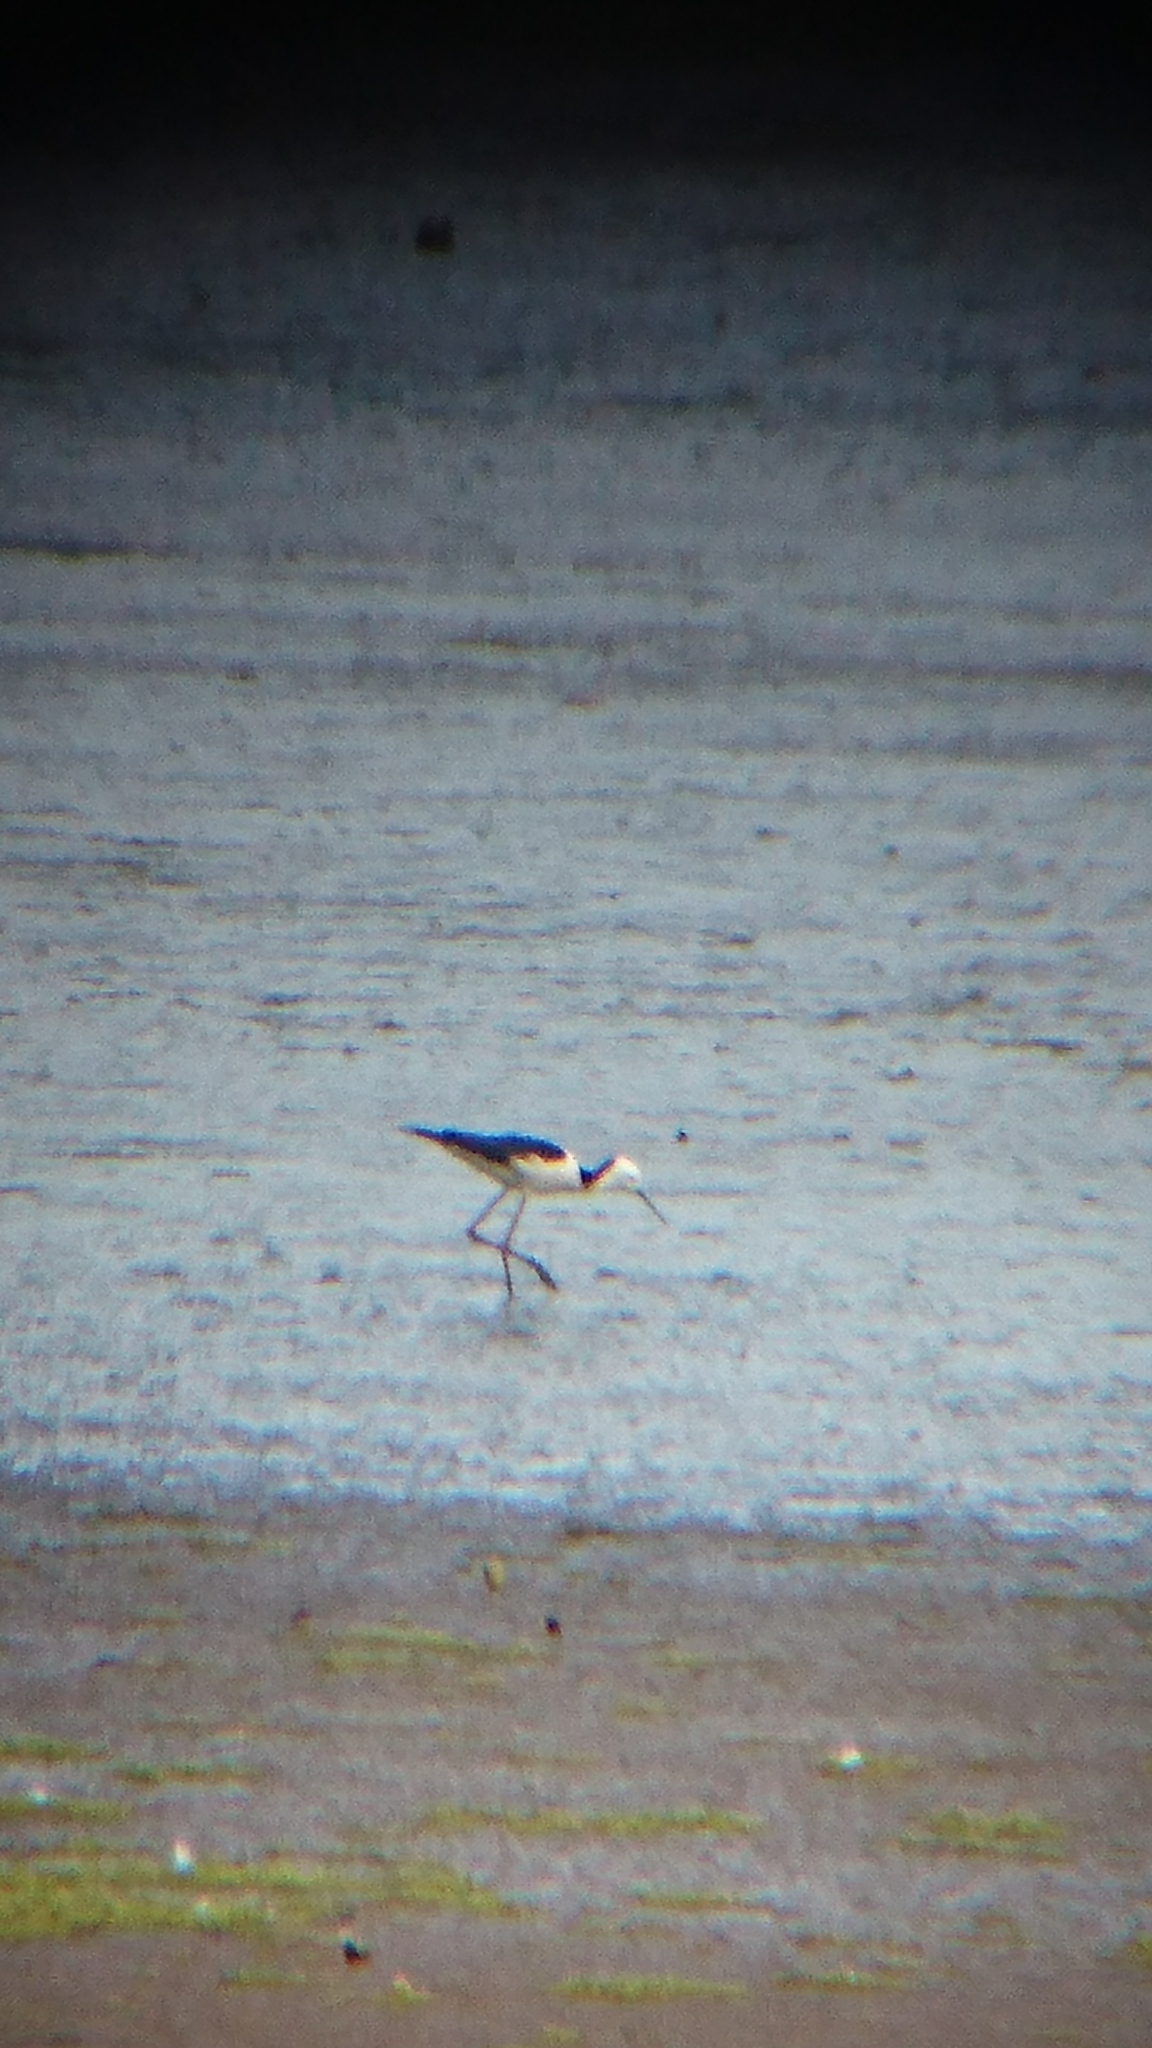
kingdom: Animalia
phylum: Chordata
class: Aves
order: Charadriiformes
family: Recurvirostridae
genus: Himantopus
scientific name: Himantopus leucocephalus
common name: White-headed stilt
